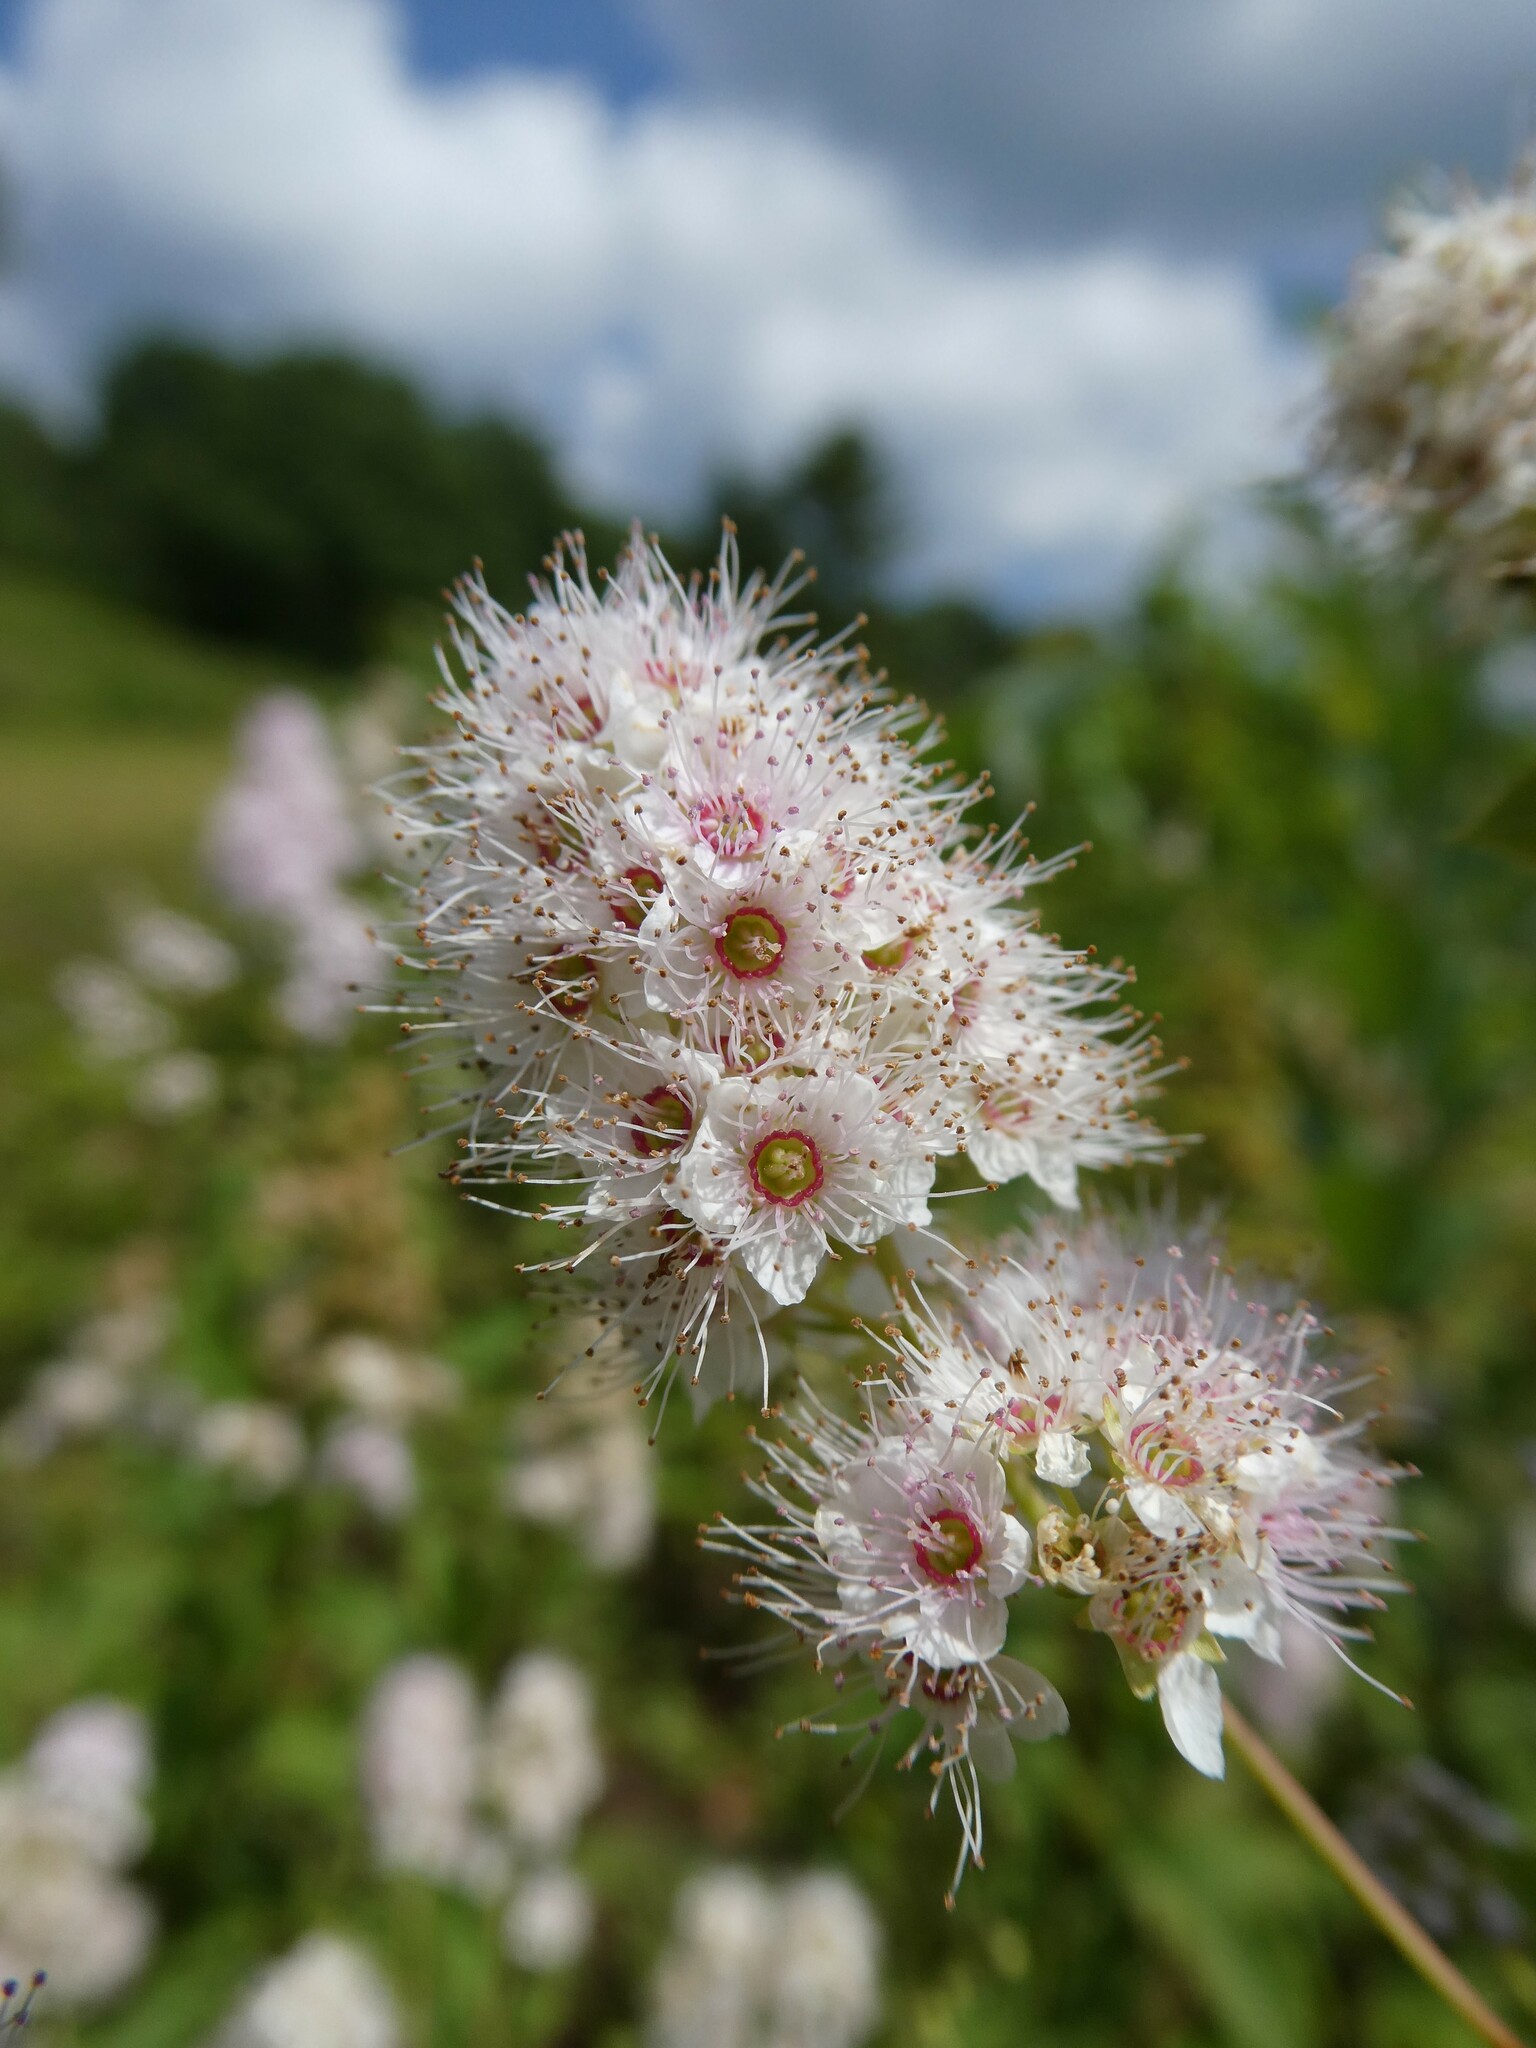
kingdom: Plantae
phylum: Tracheophyta
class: Magnoliopsida
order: Rosales
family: Rosaceae
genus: Spiraea
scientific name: Spiraea alba
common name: Pale bridewort
